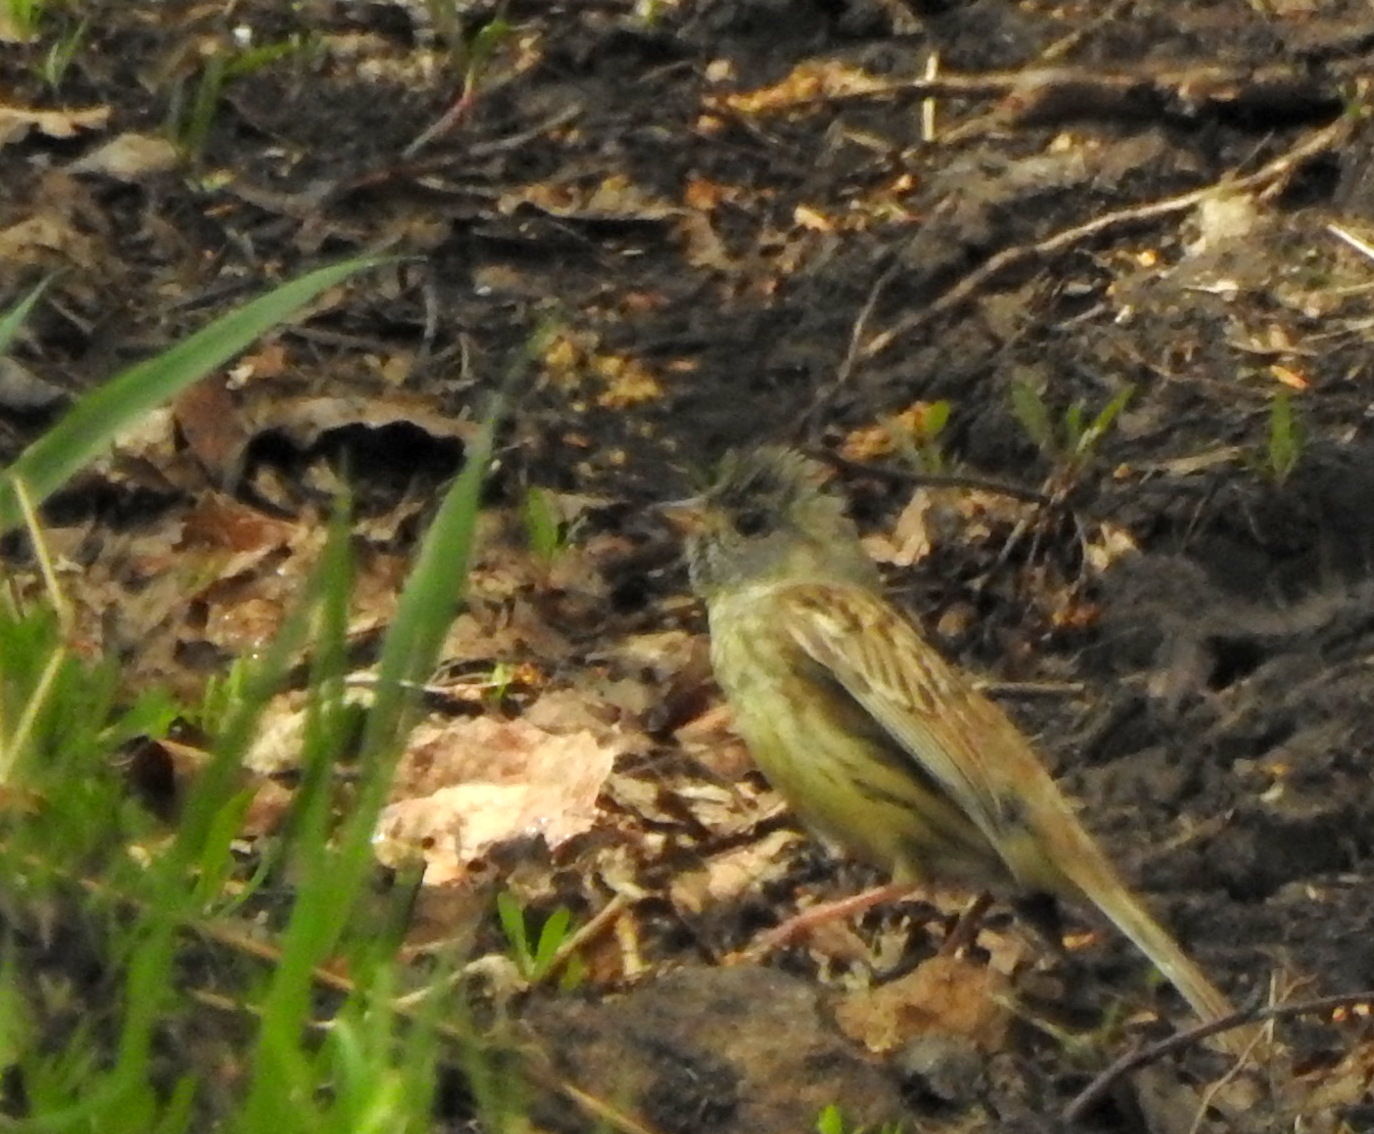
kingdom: Animalia
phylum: Chordata
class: Aves
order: Passeriformes
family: Emberizidae
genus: Emberiza
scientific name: Emberiza spodocephala
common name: Black-faced bunting
